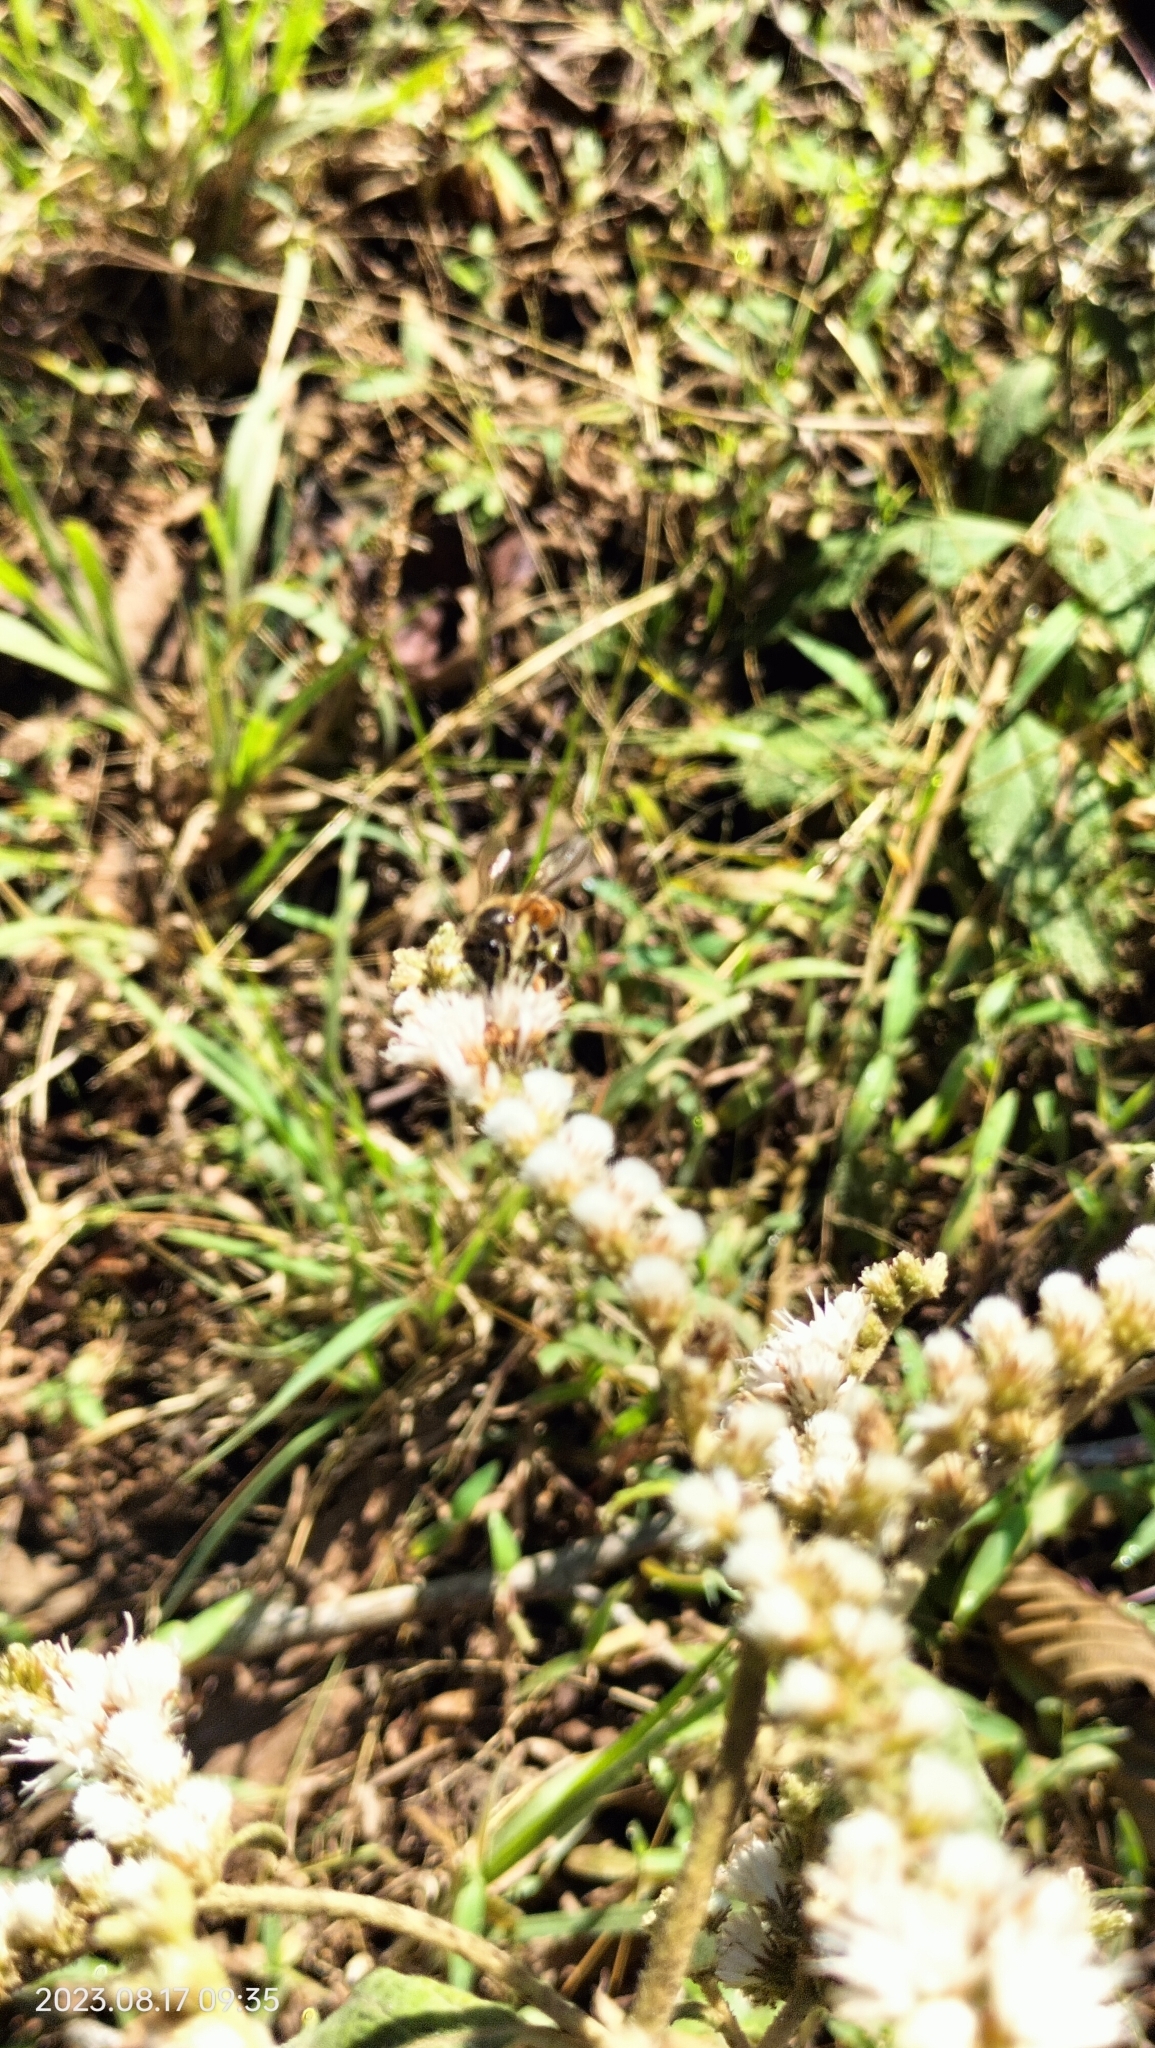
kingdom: Animalia
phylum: Arthropoda
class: Insecta
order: Hymenoptera
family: Apidae
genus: Apis
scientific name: Apis mellifera
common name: Honey bee
